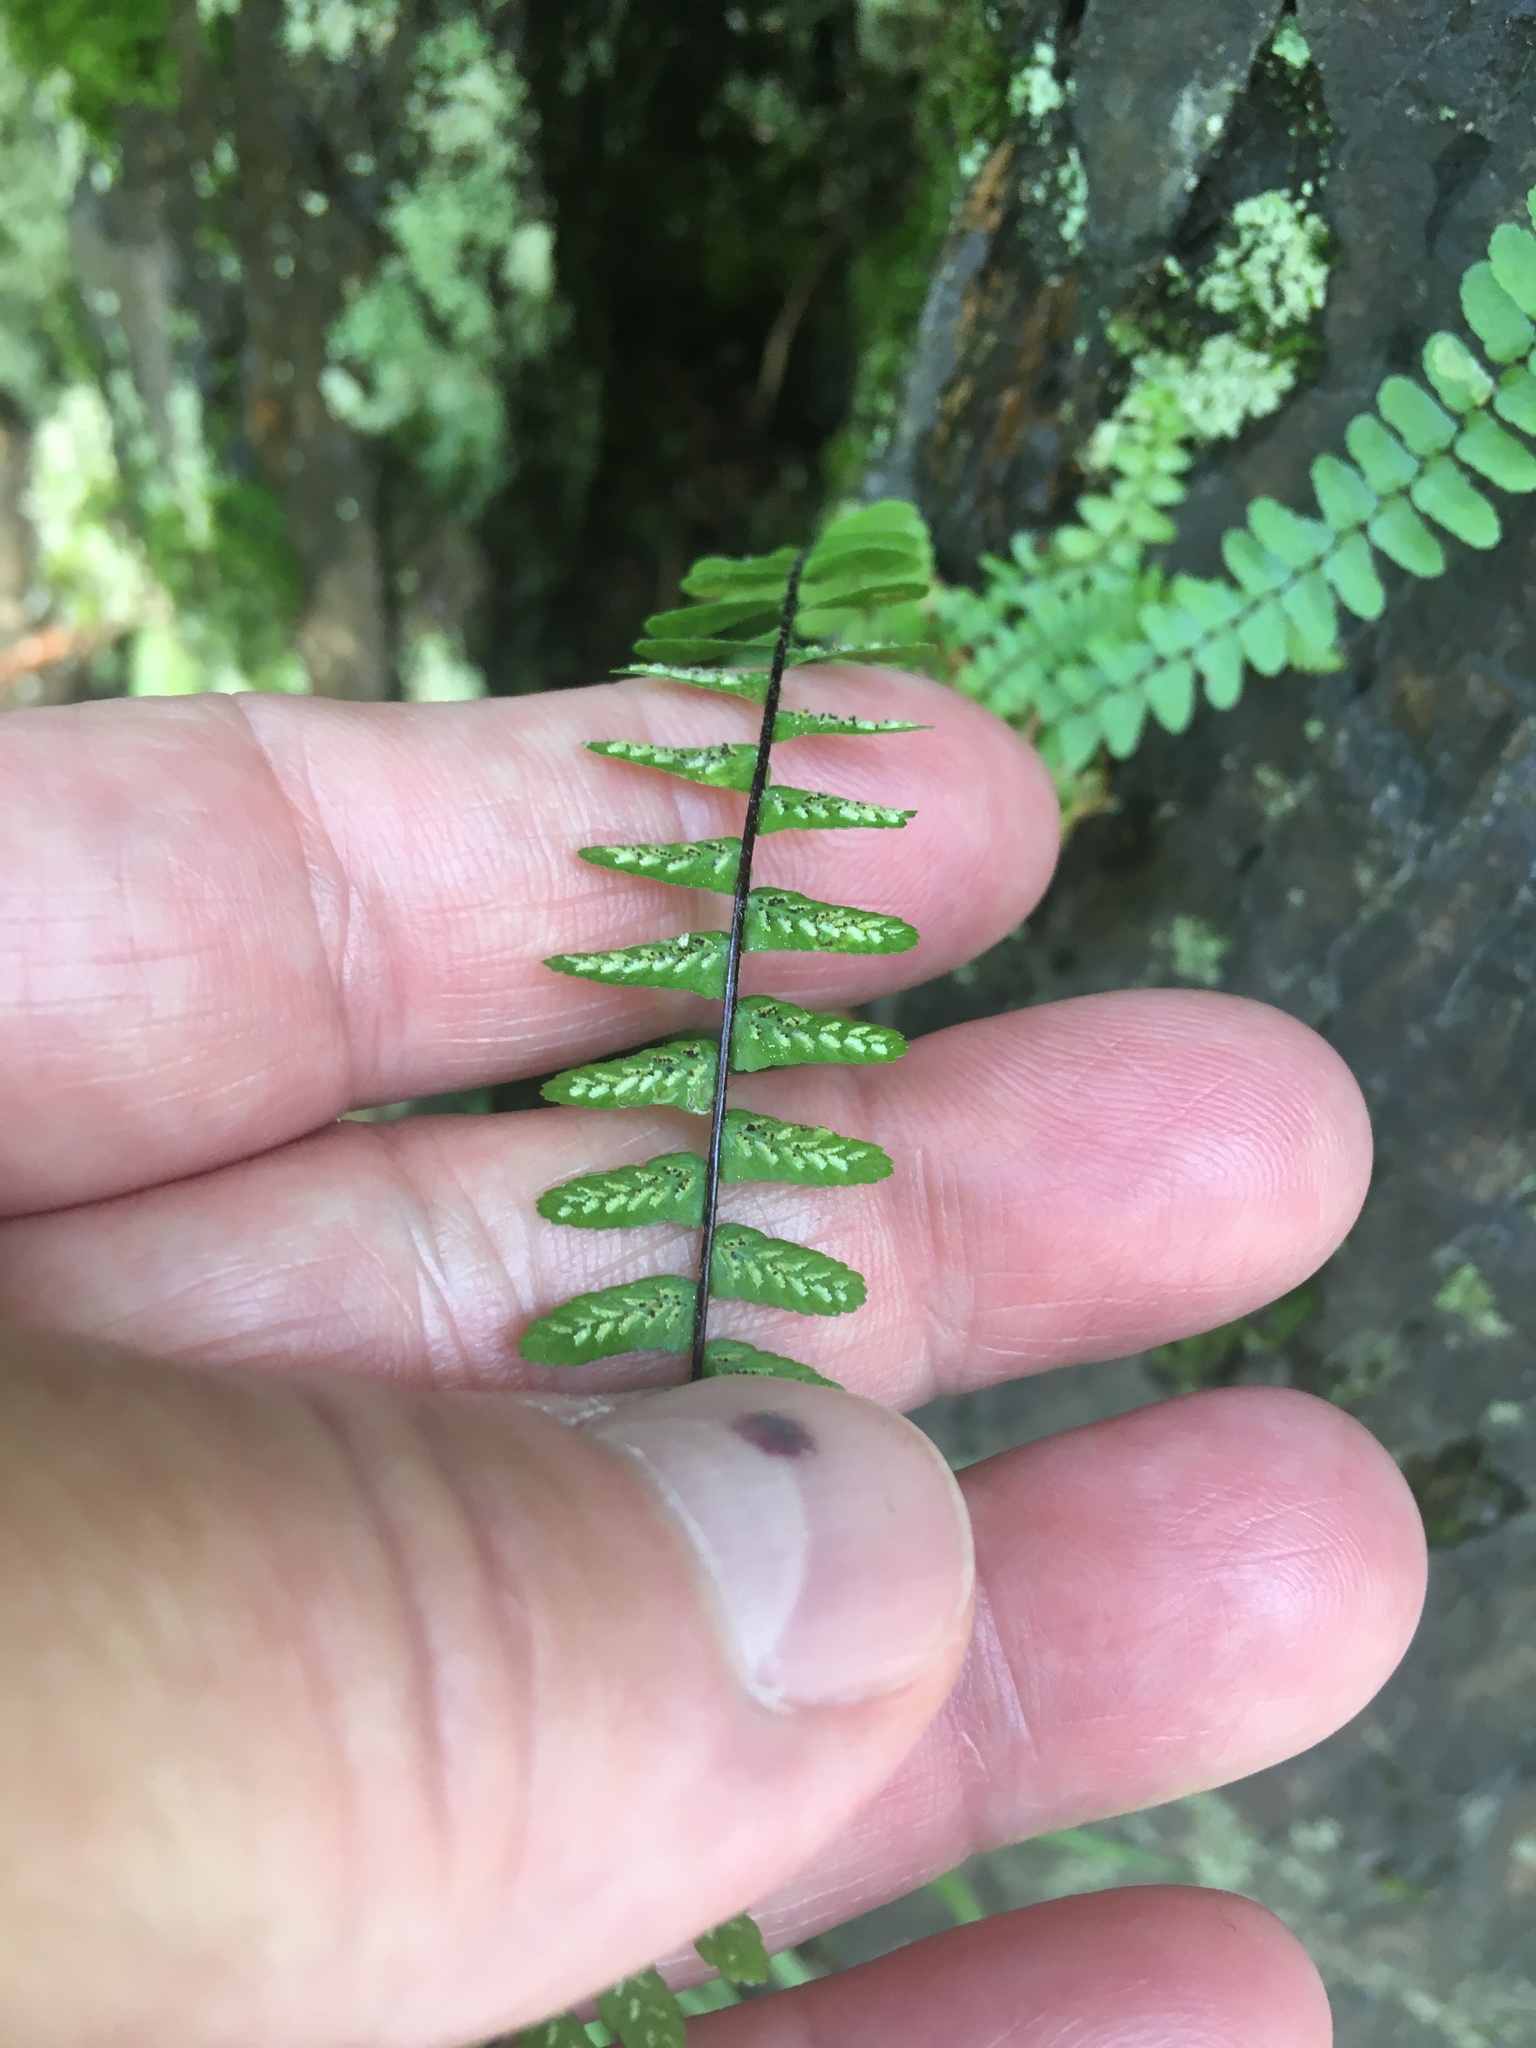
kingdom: Plantae
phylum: Tracheophyta
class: Polypodiopsida
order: Polypodiales
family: Aspleniaceae
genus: Asplenium
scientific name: Asplenium platyneuron
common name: Ebony spleenwort
